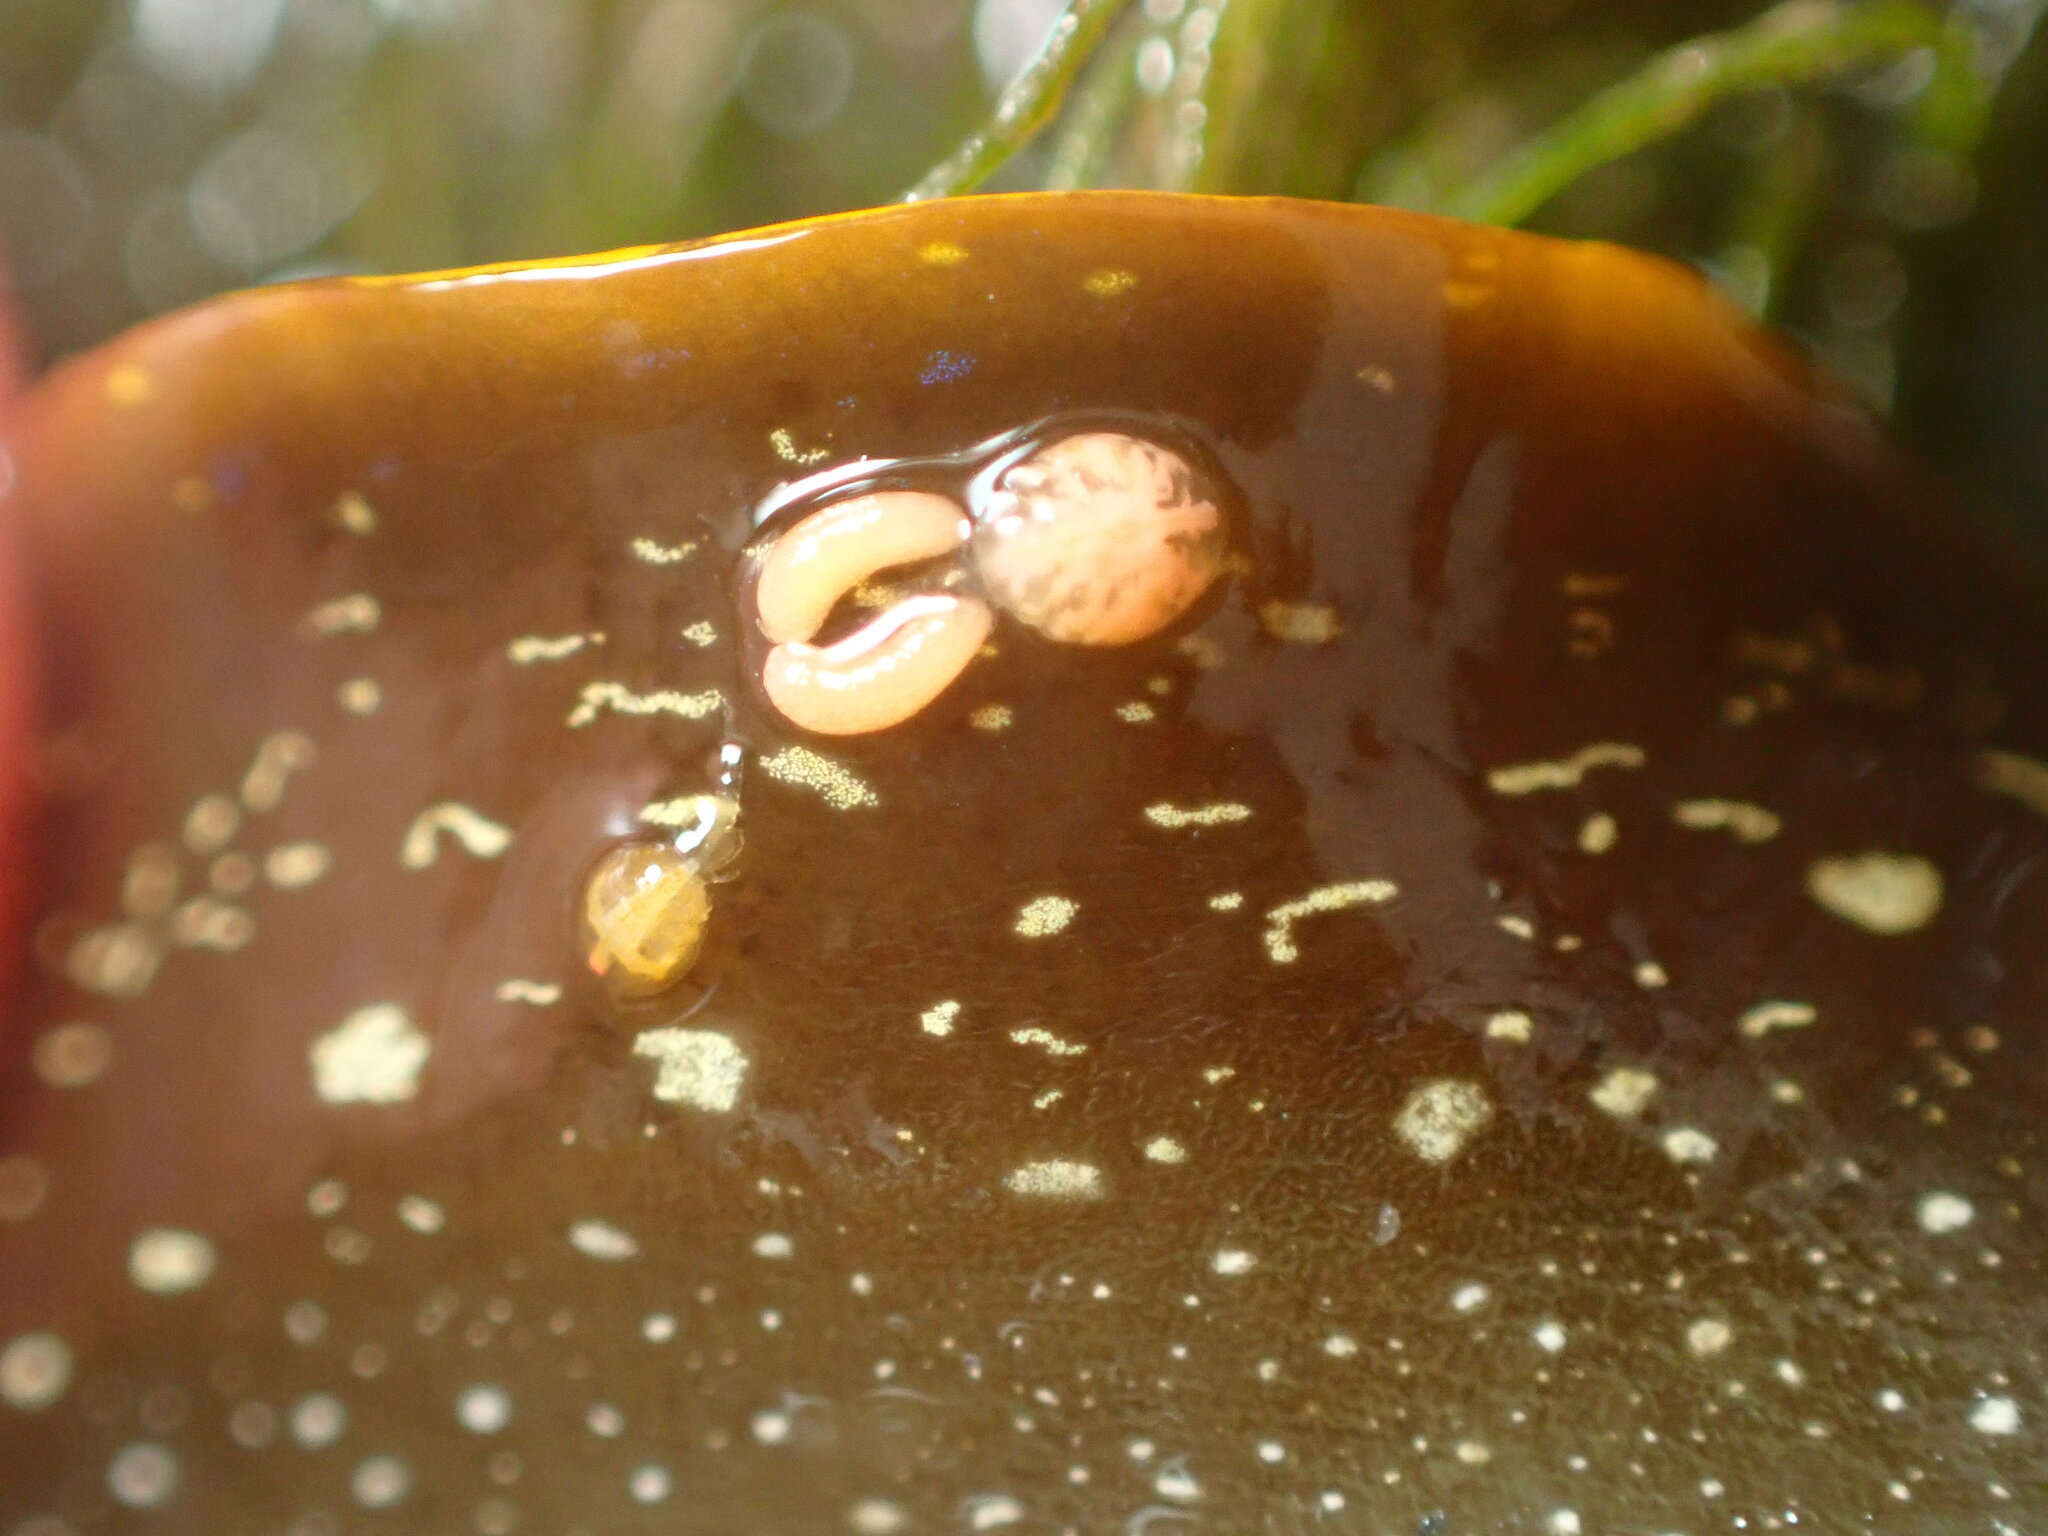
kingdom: Animalia
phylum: Arthropoda
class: Copepoda
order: Cyclopoida
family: Anthessiidae
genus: Anthessius
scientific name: Anthessius navanacis
